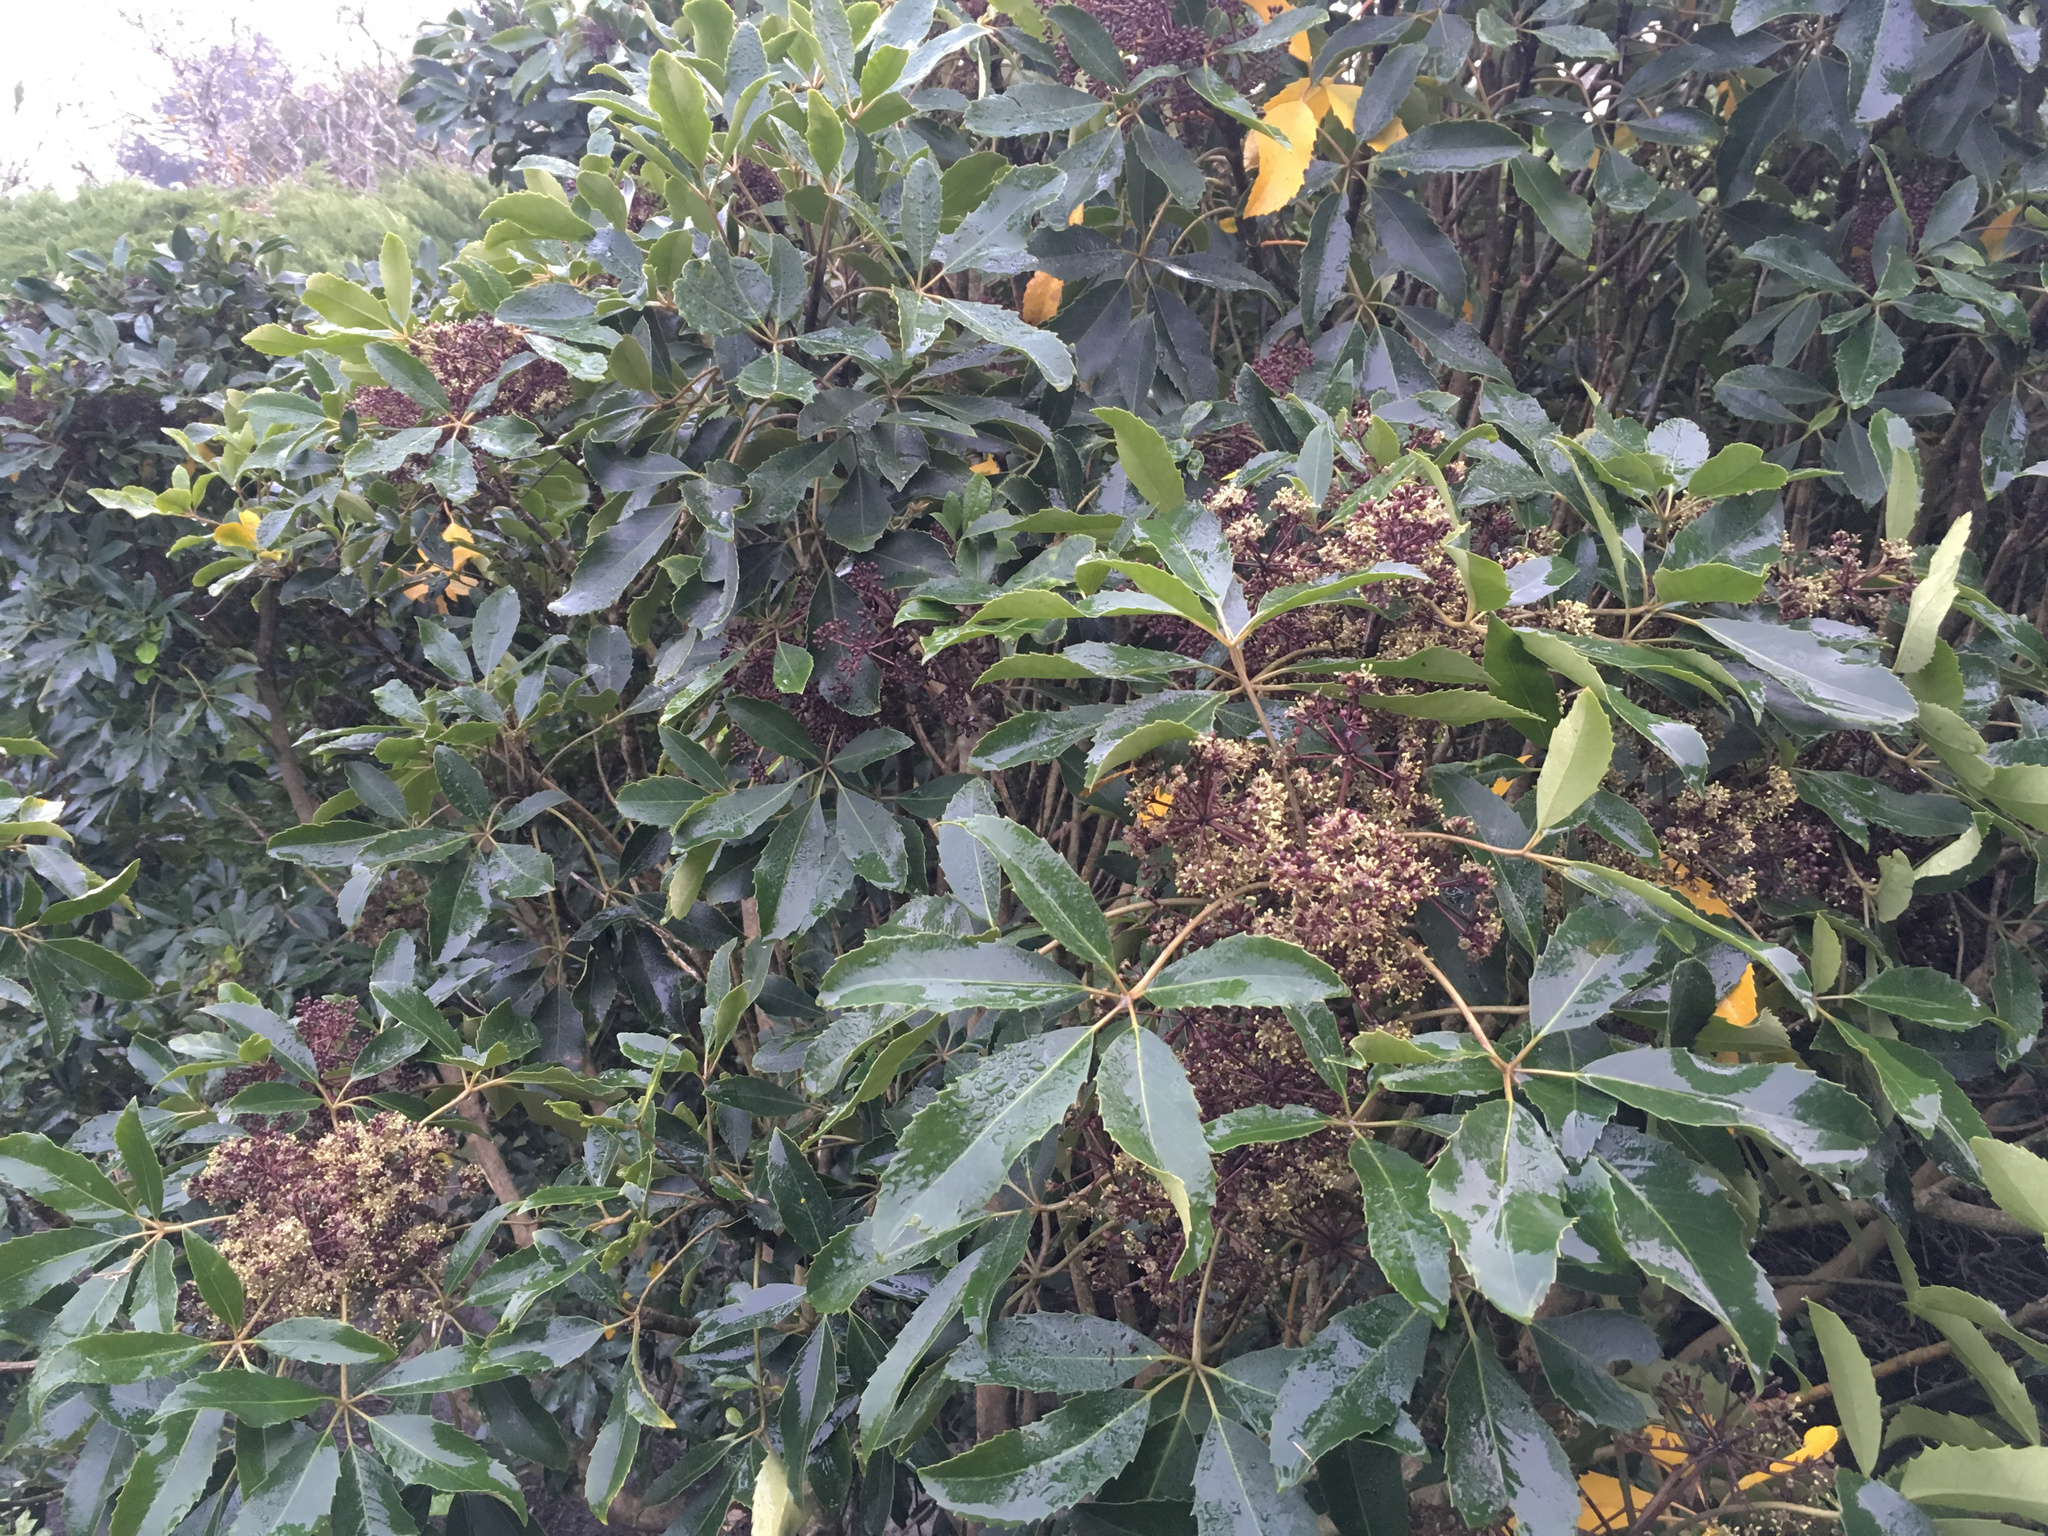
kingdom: Plantae
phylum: Tracheophyta
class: Magnoliopsida
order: Apiales
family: Araliaceae
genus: Neopanax
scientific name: Neopanax arboreus
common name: Five-fingers
